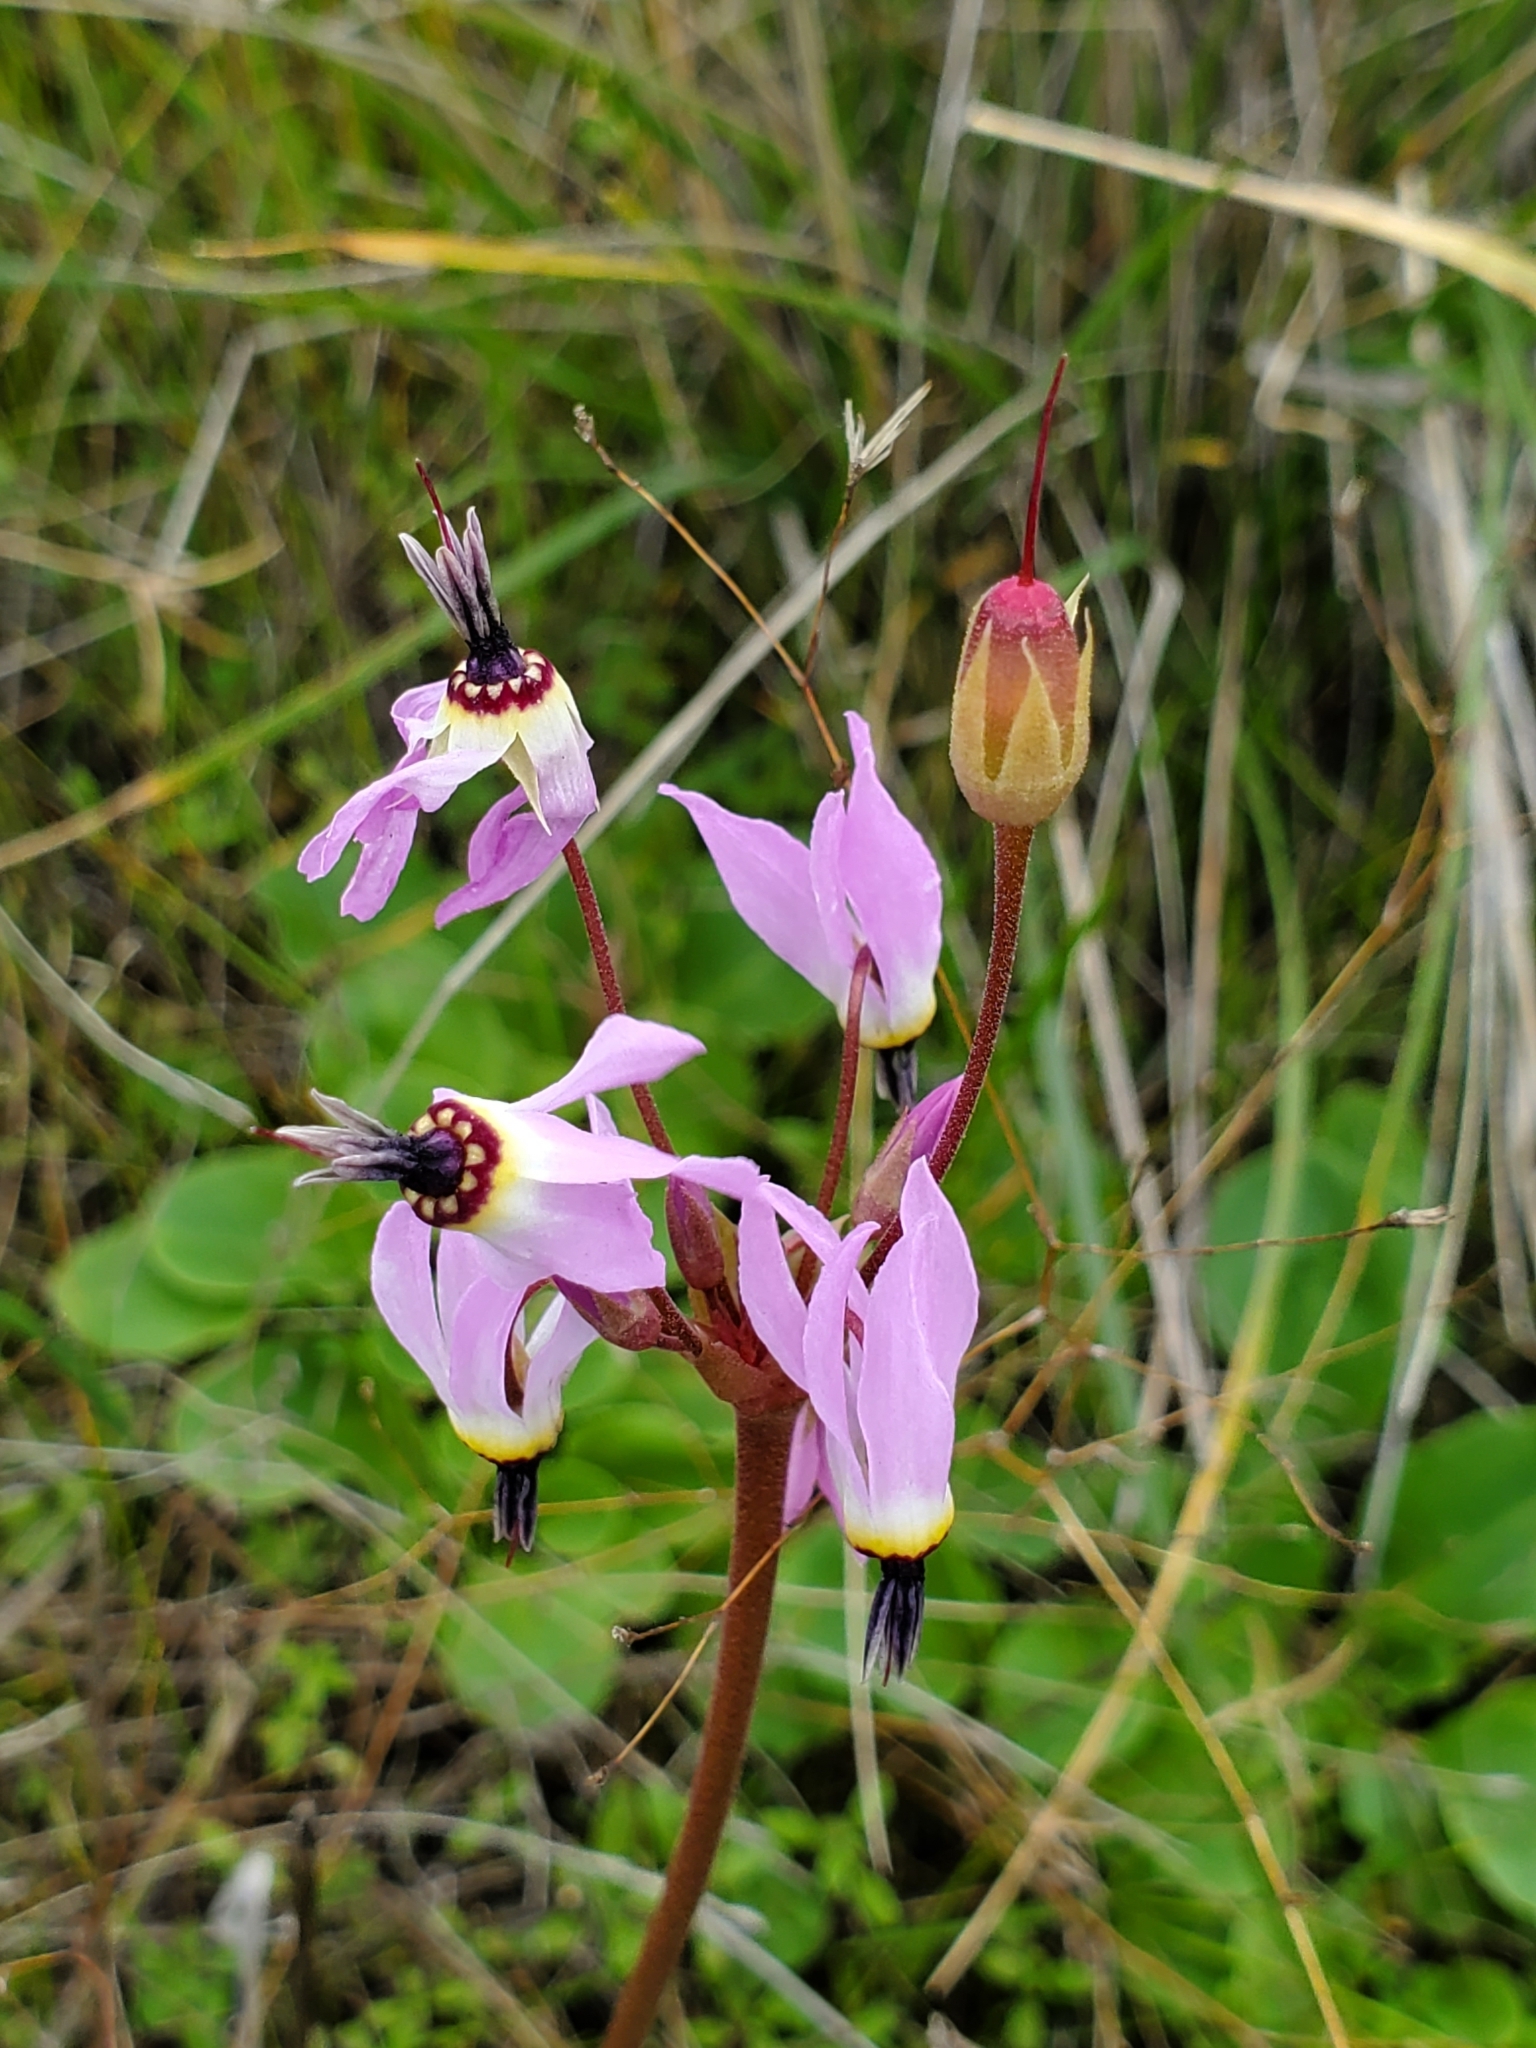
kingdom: Plantae
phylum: Tracheophyta
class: Magnoliopsida
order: Ericales
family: Primulaceae
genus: Dodecatheon
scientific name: Dodecatheon hendersonii
